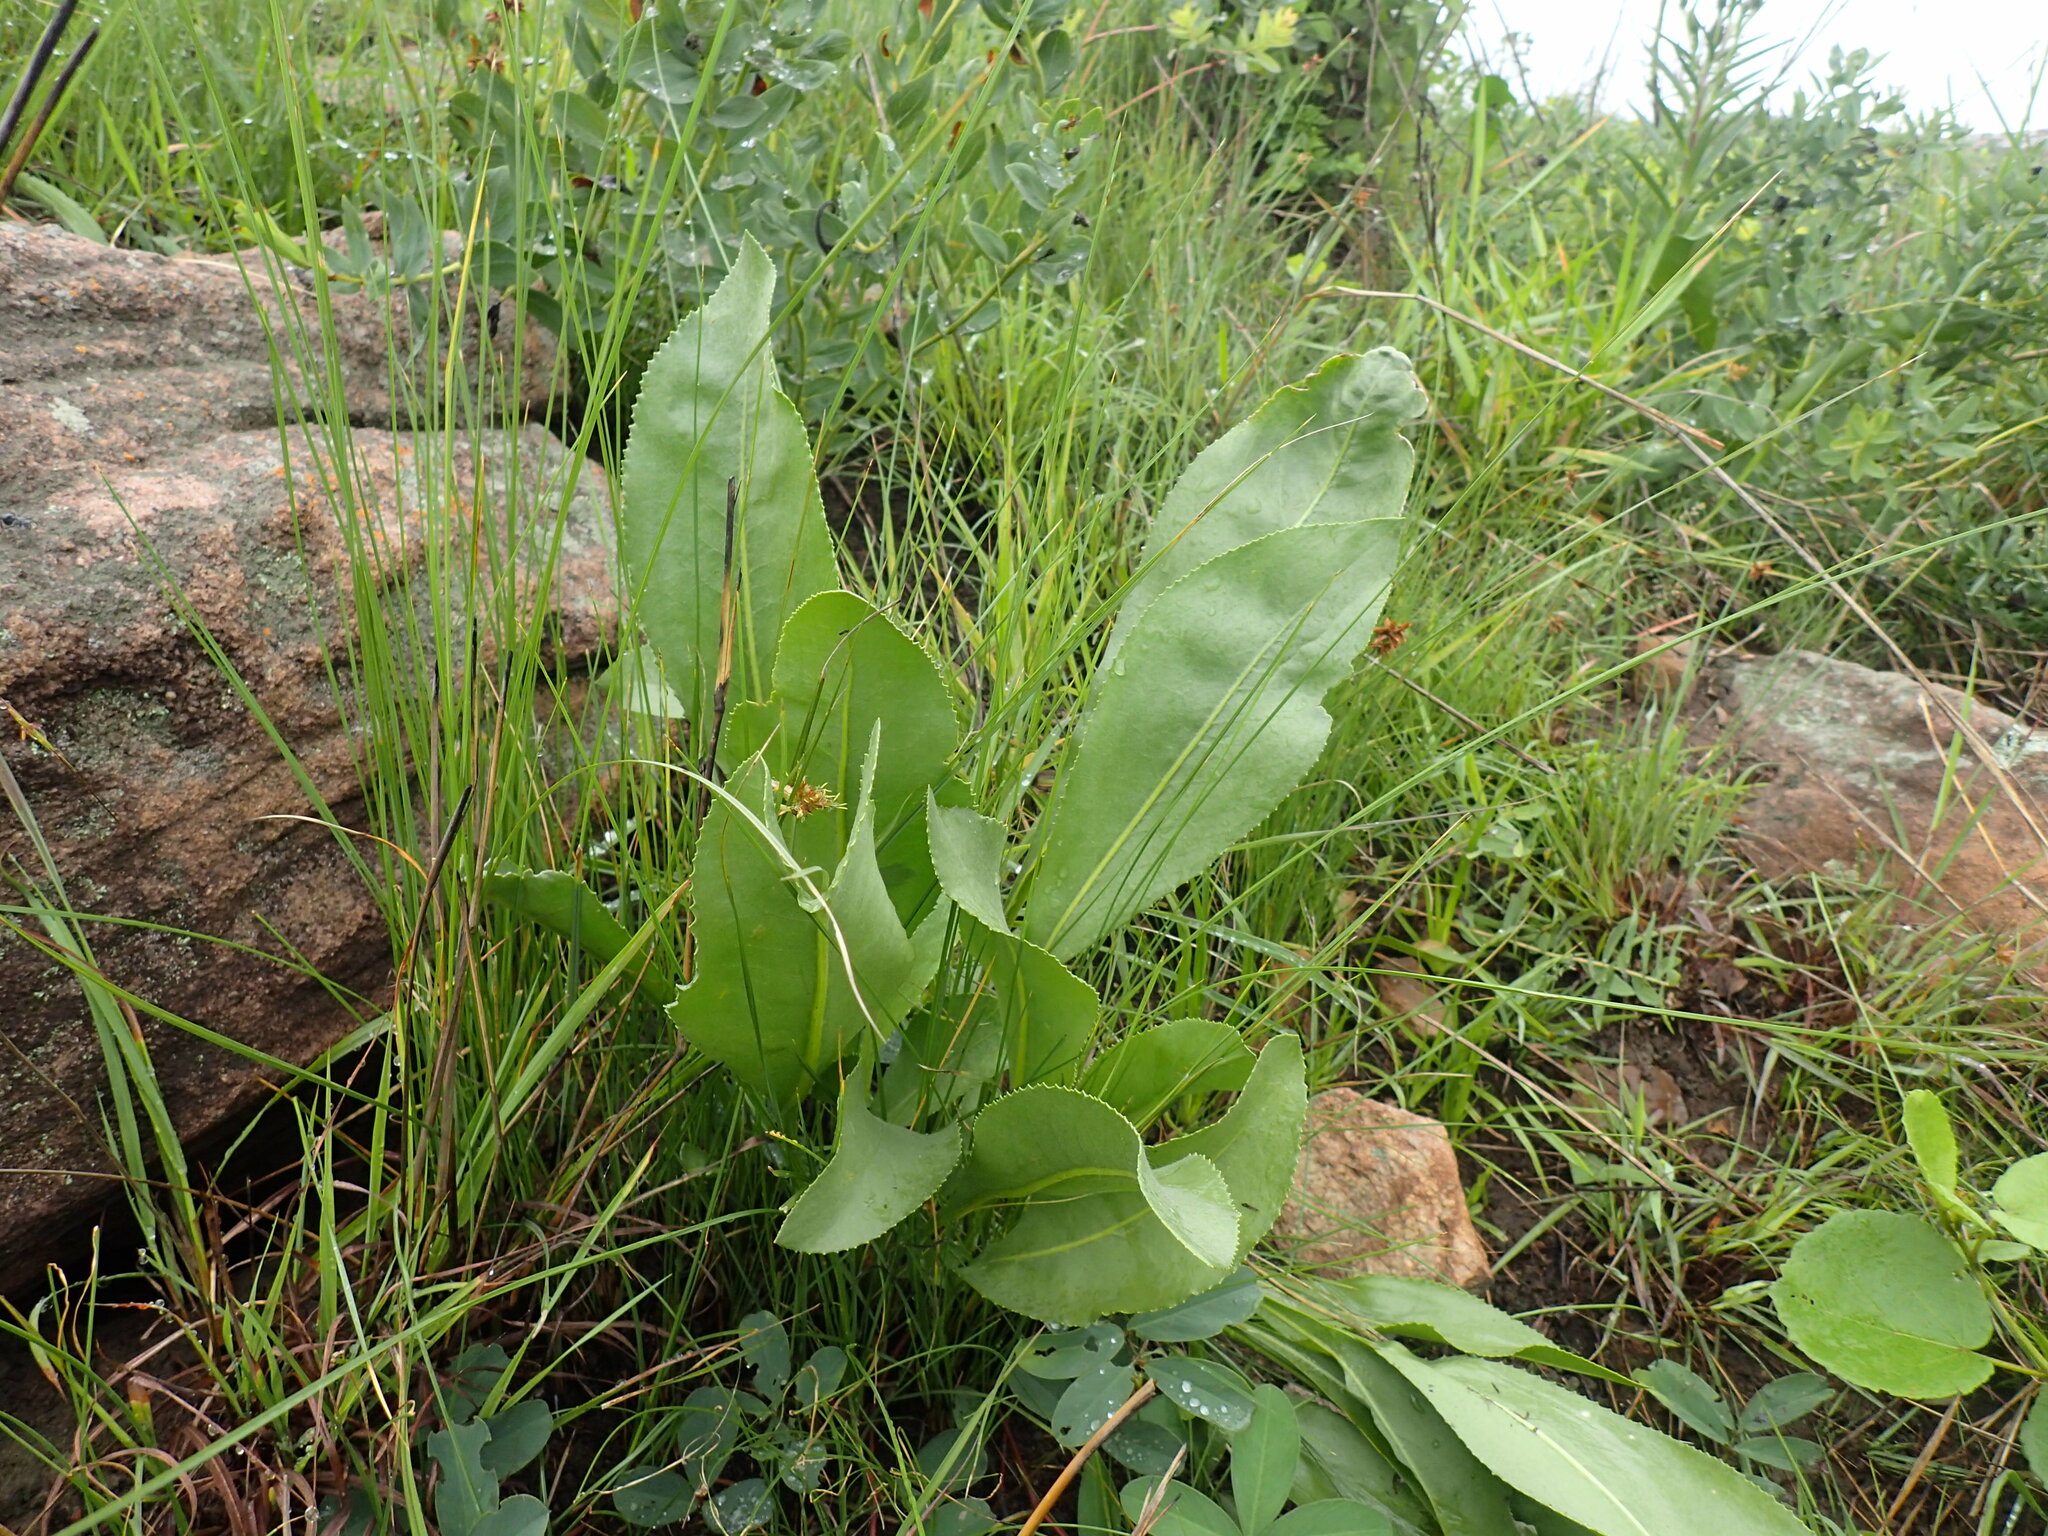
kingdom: Plantae
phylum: Tracheophyta
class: Magnoliopsida
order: Asterales
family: Asteraceae
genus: Senecio
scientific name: Senecio coronatus
